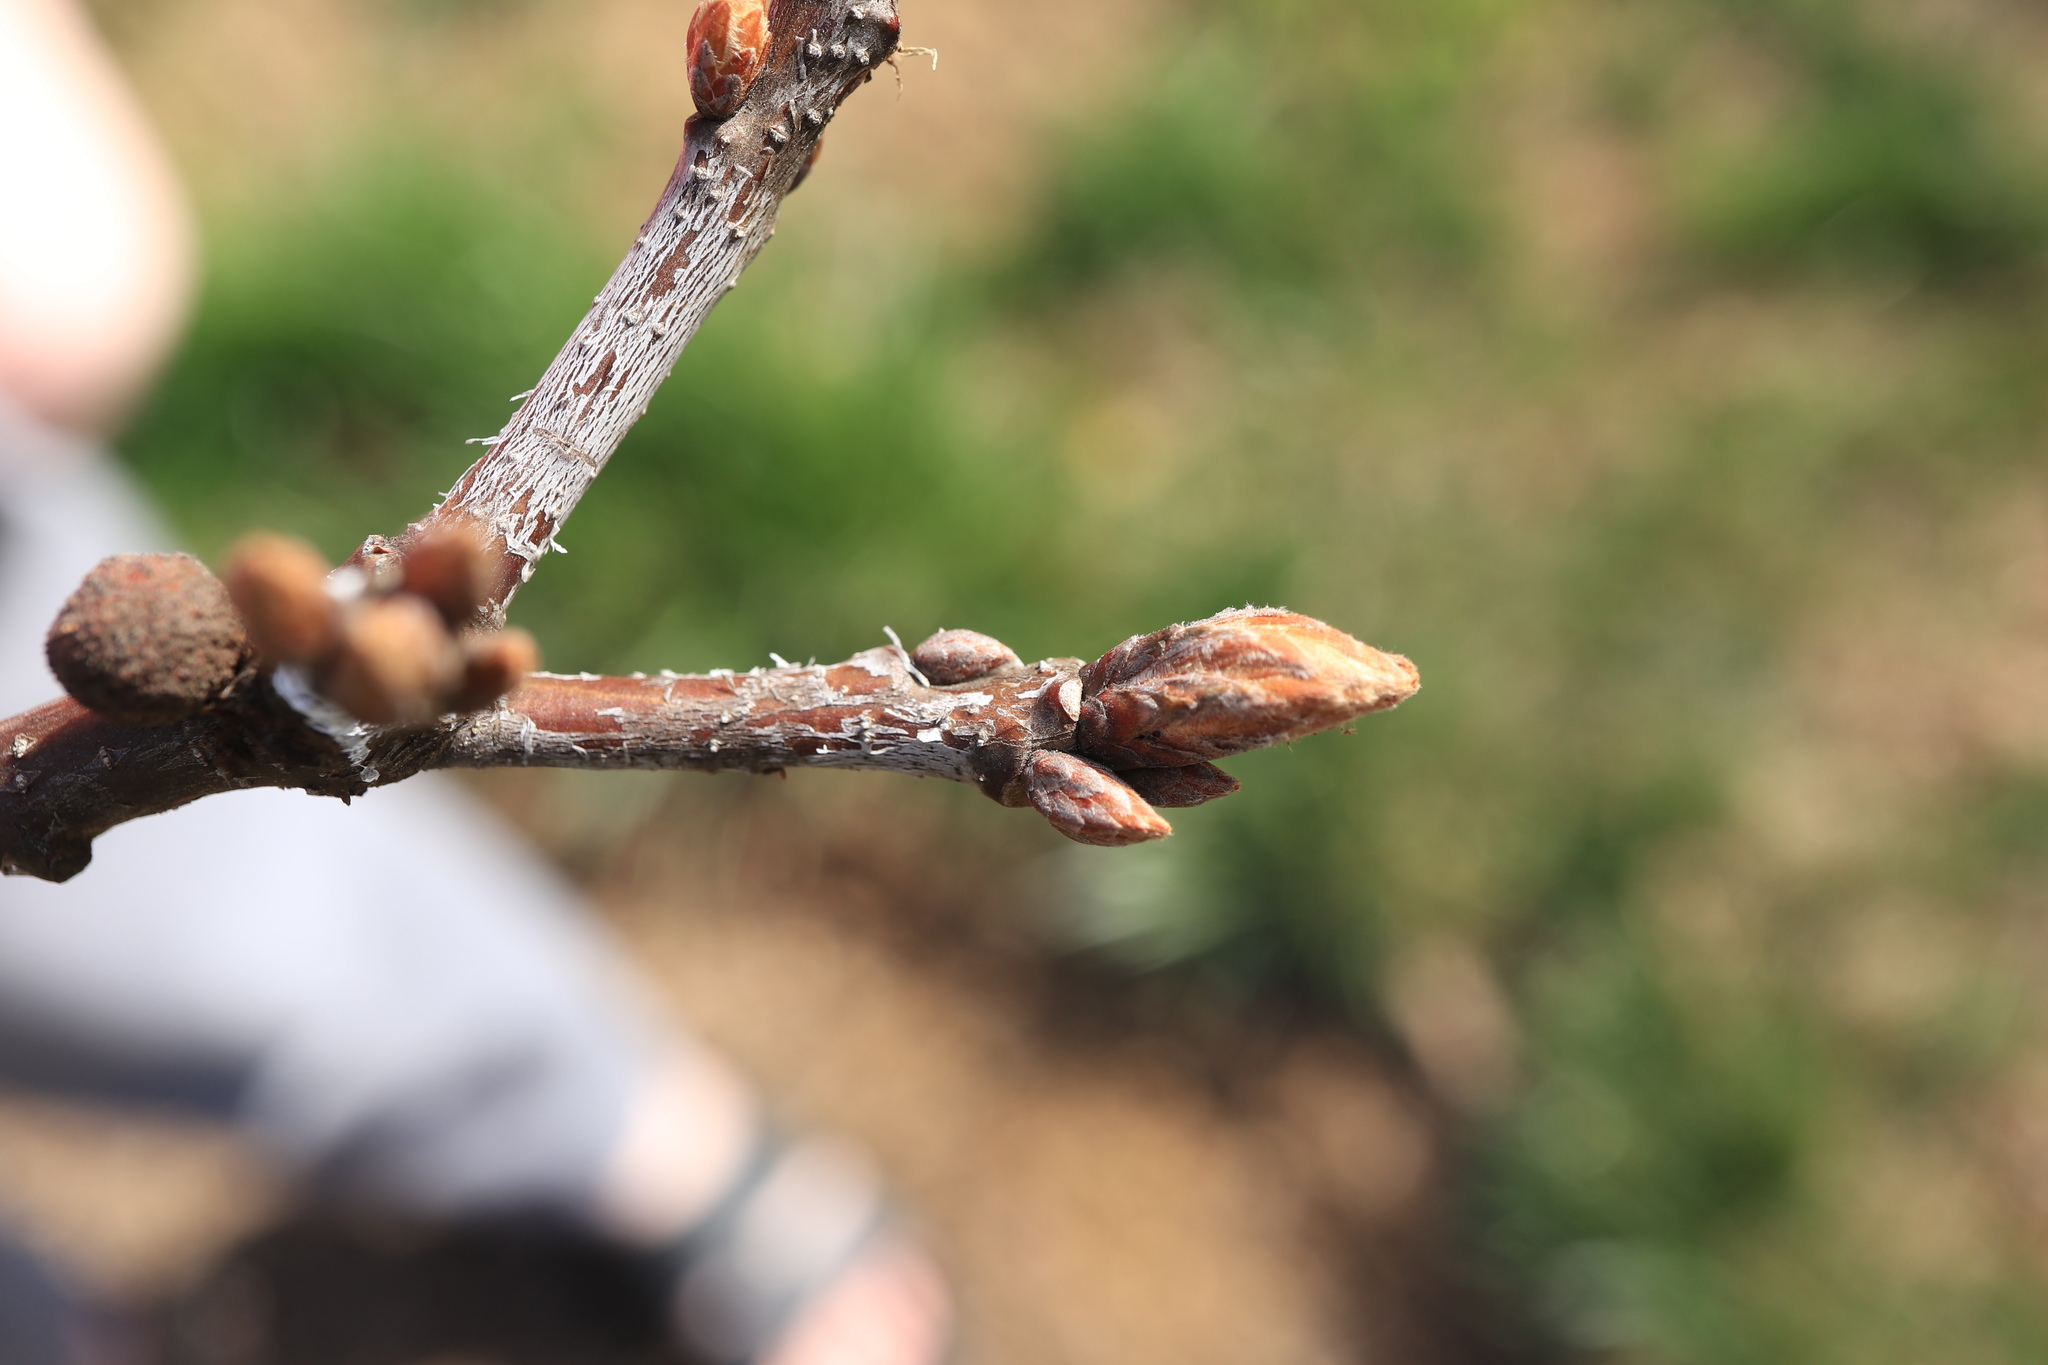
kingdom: Plantae
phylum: Tracheophyta
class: Magnoliopsida
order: Fagales
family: Fagaceae
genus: Quercus
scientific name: Quercus alba
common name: White oak
